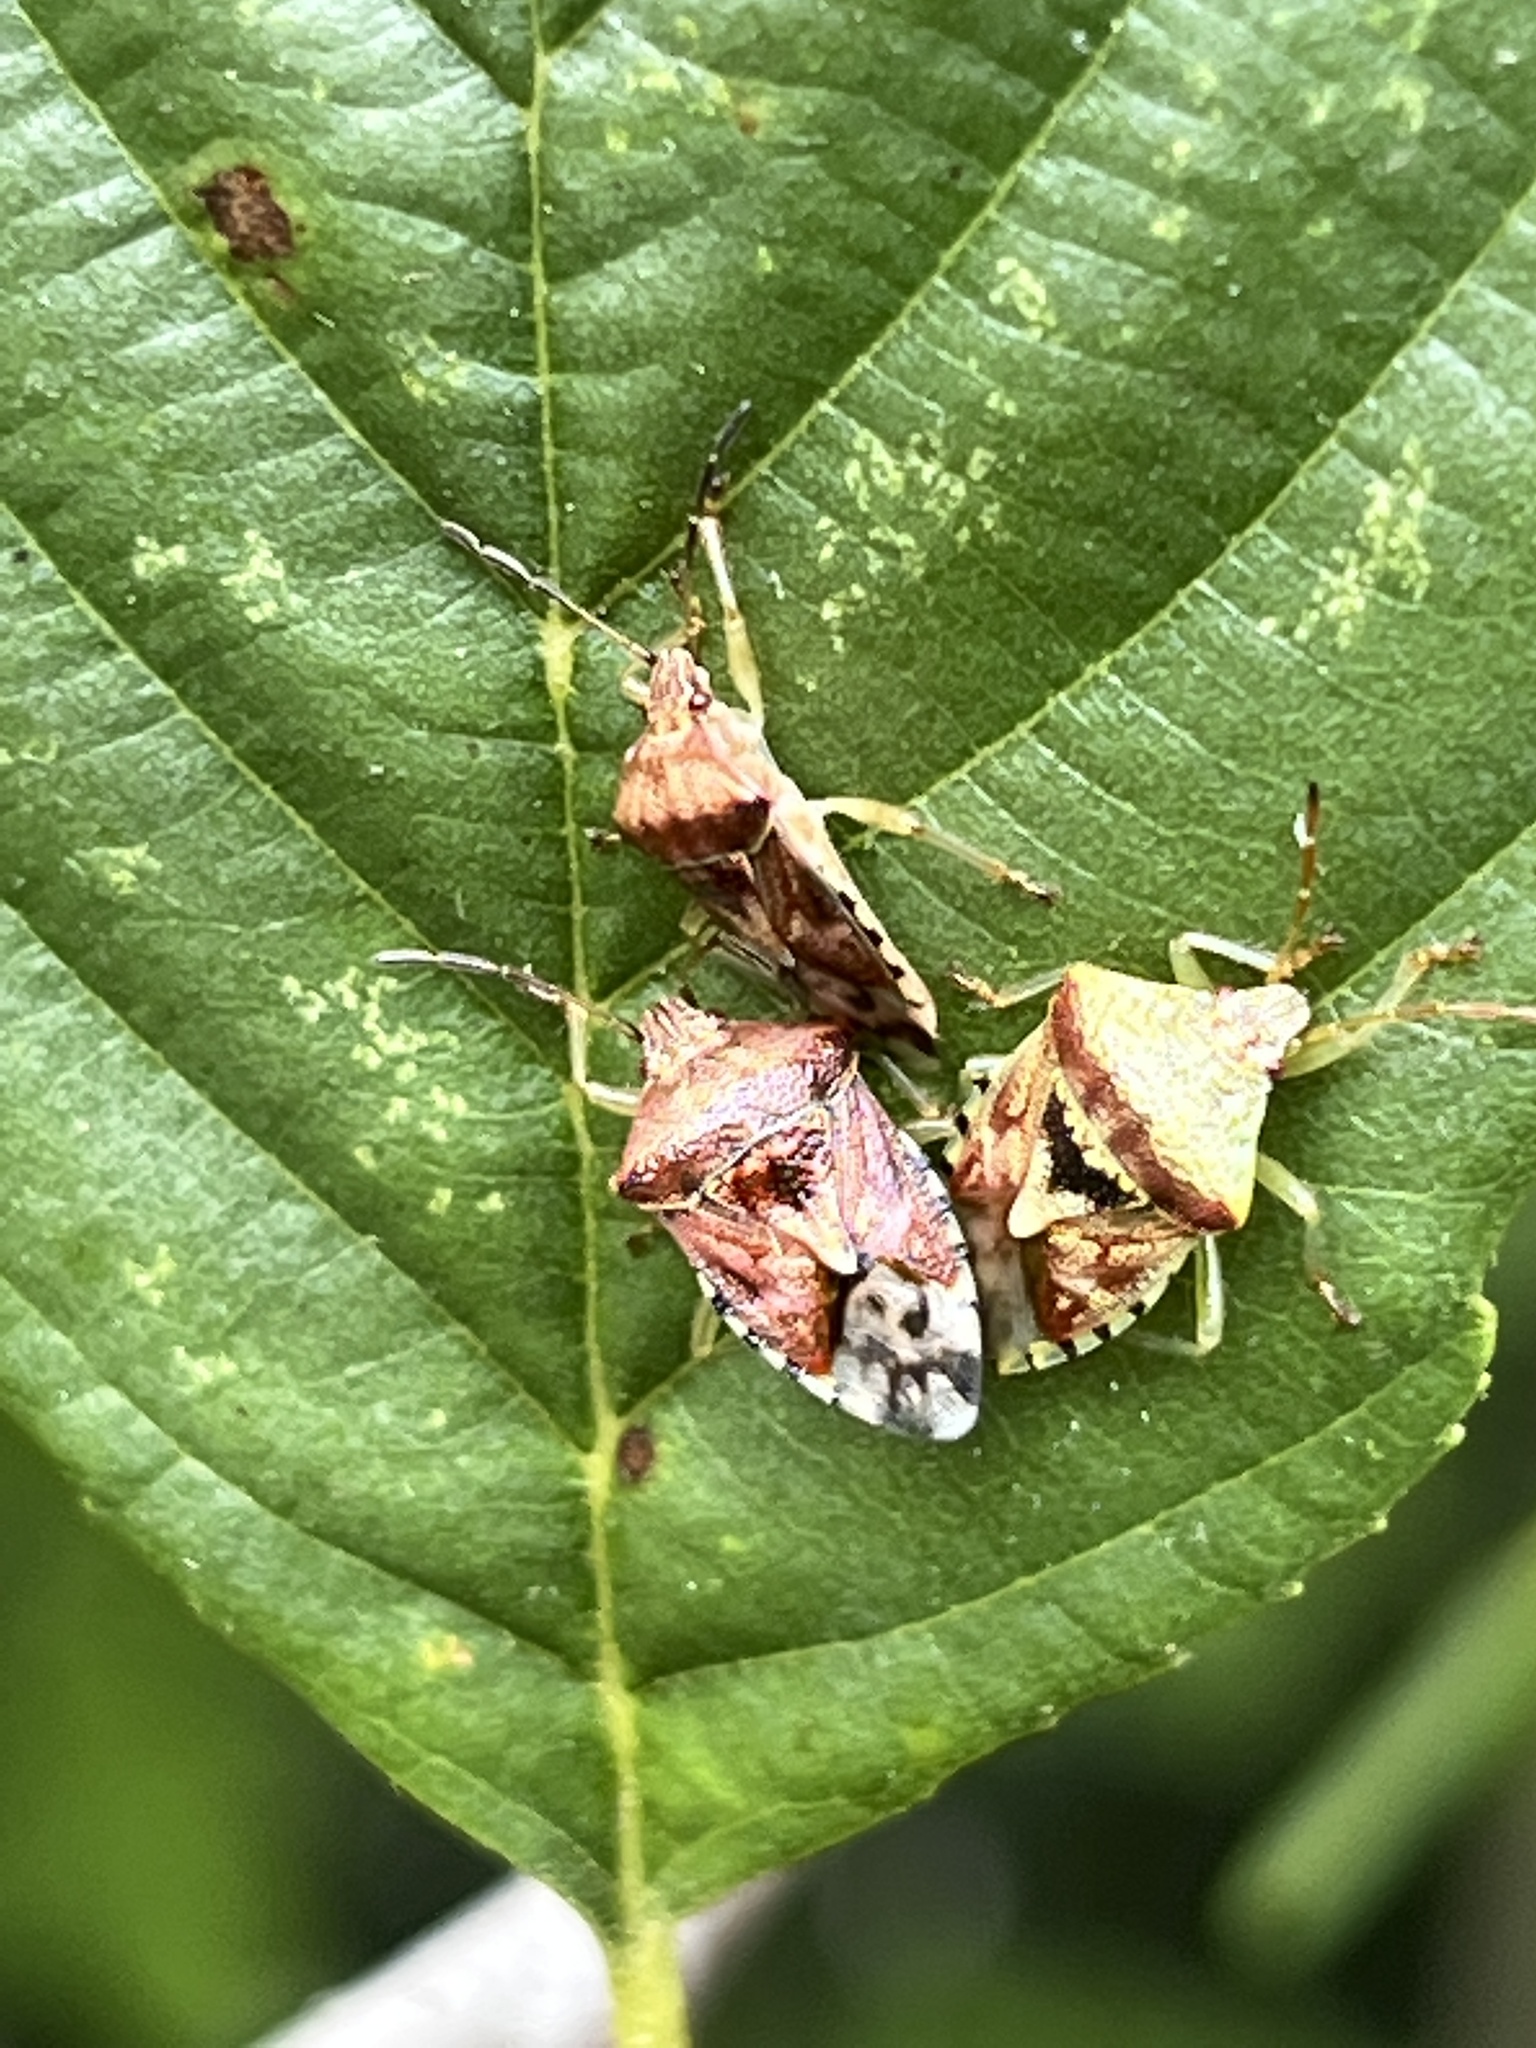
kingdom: Animalia
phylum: Arthropoda
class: Insecta
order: Hemiptera
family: Acanthosomatidae
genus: Elasmucha
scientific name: Elasmucha grisea
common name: Parent bug
